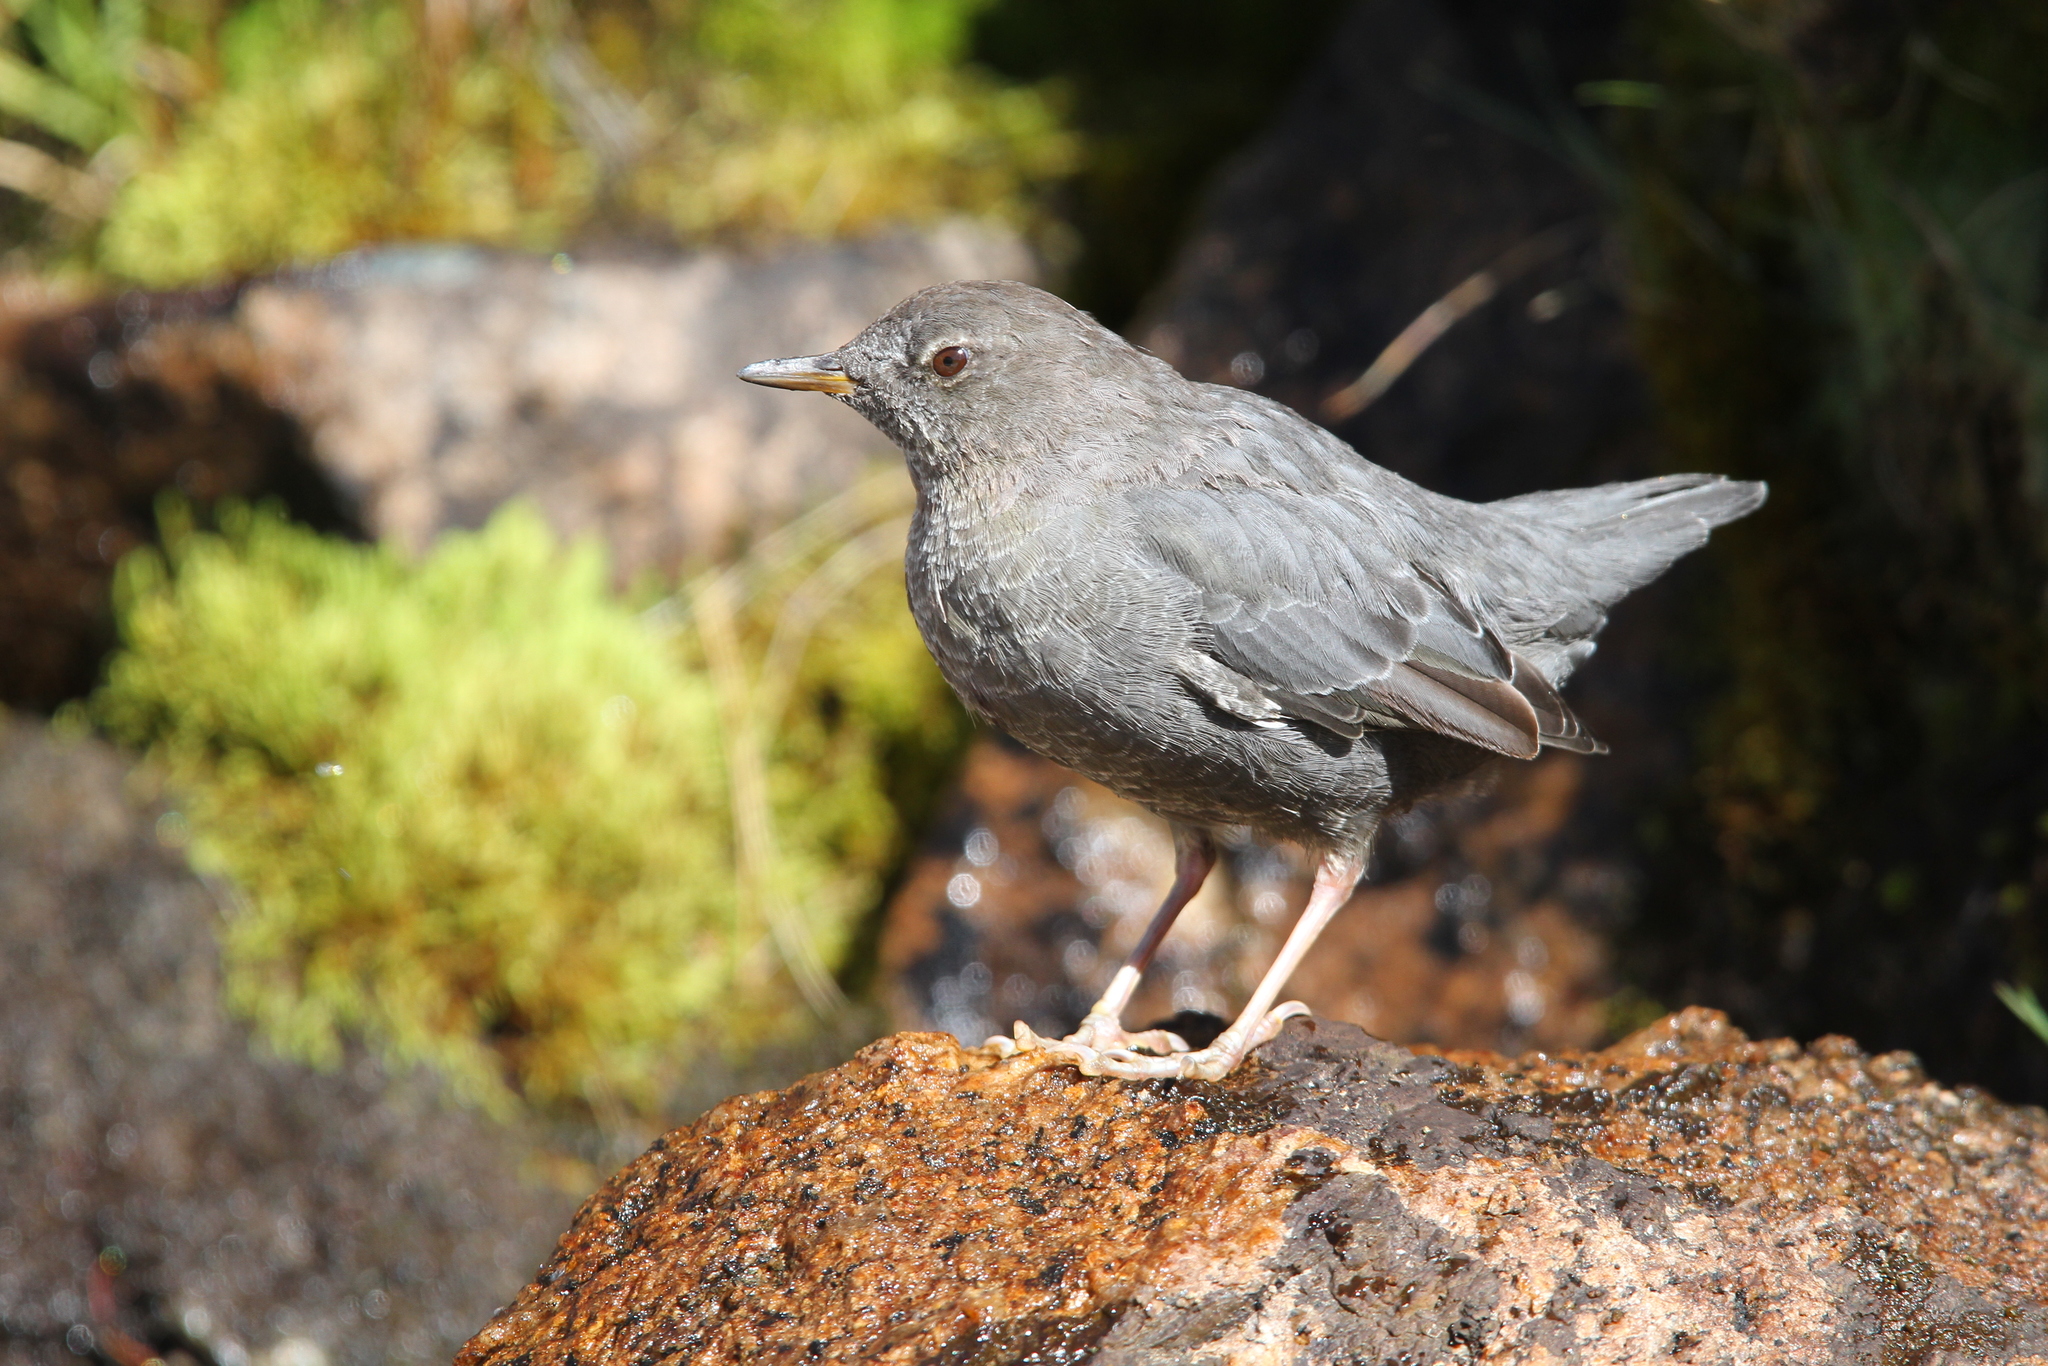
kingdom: Animalia
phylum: Chordata
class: Aves
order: Passeriformes
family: Cinclidae
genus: Cinclus
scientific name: Cinclus mexicanus
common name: American dipper
